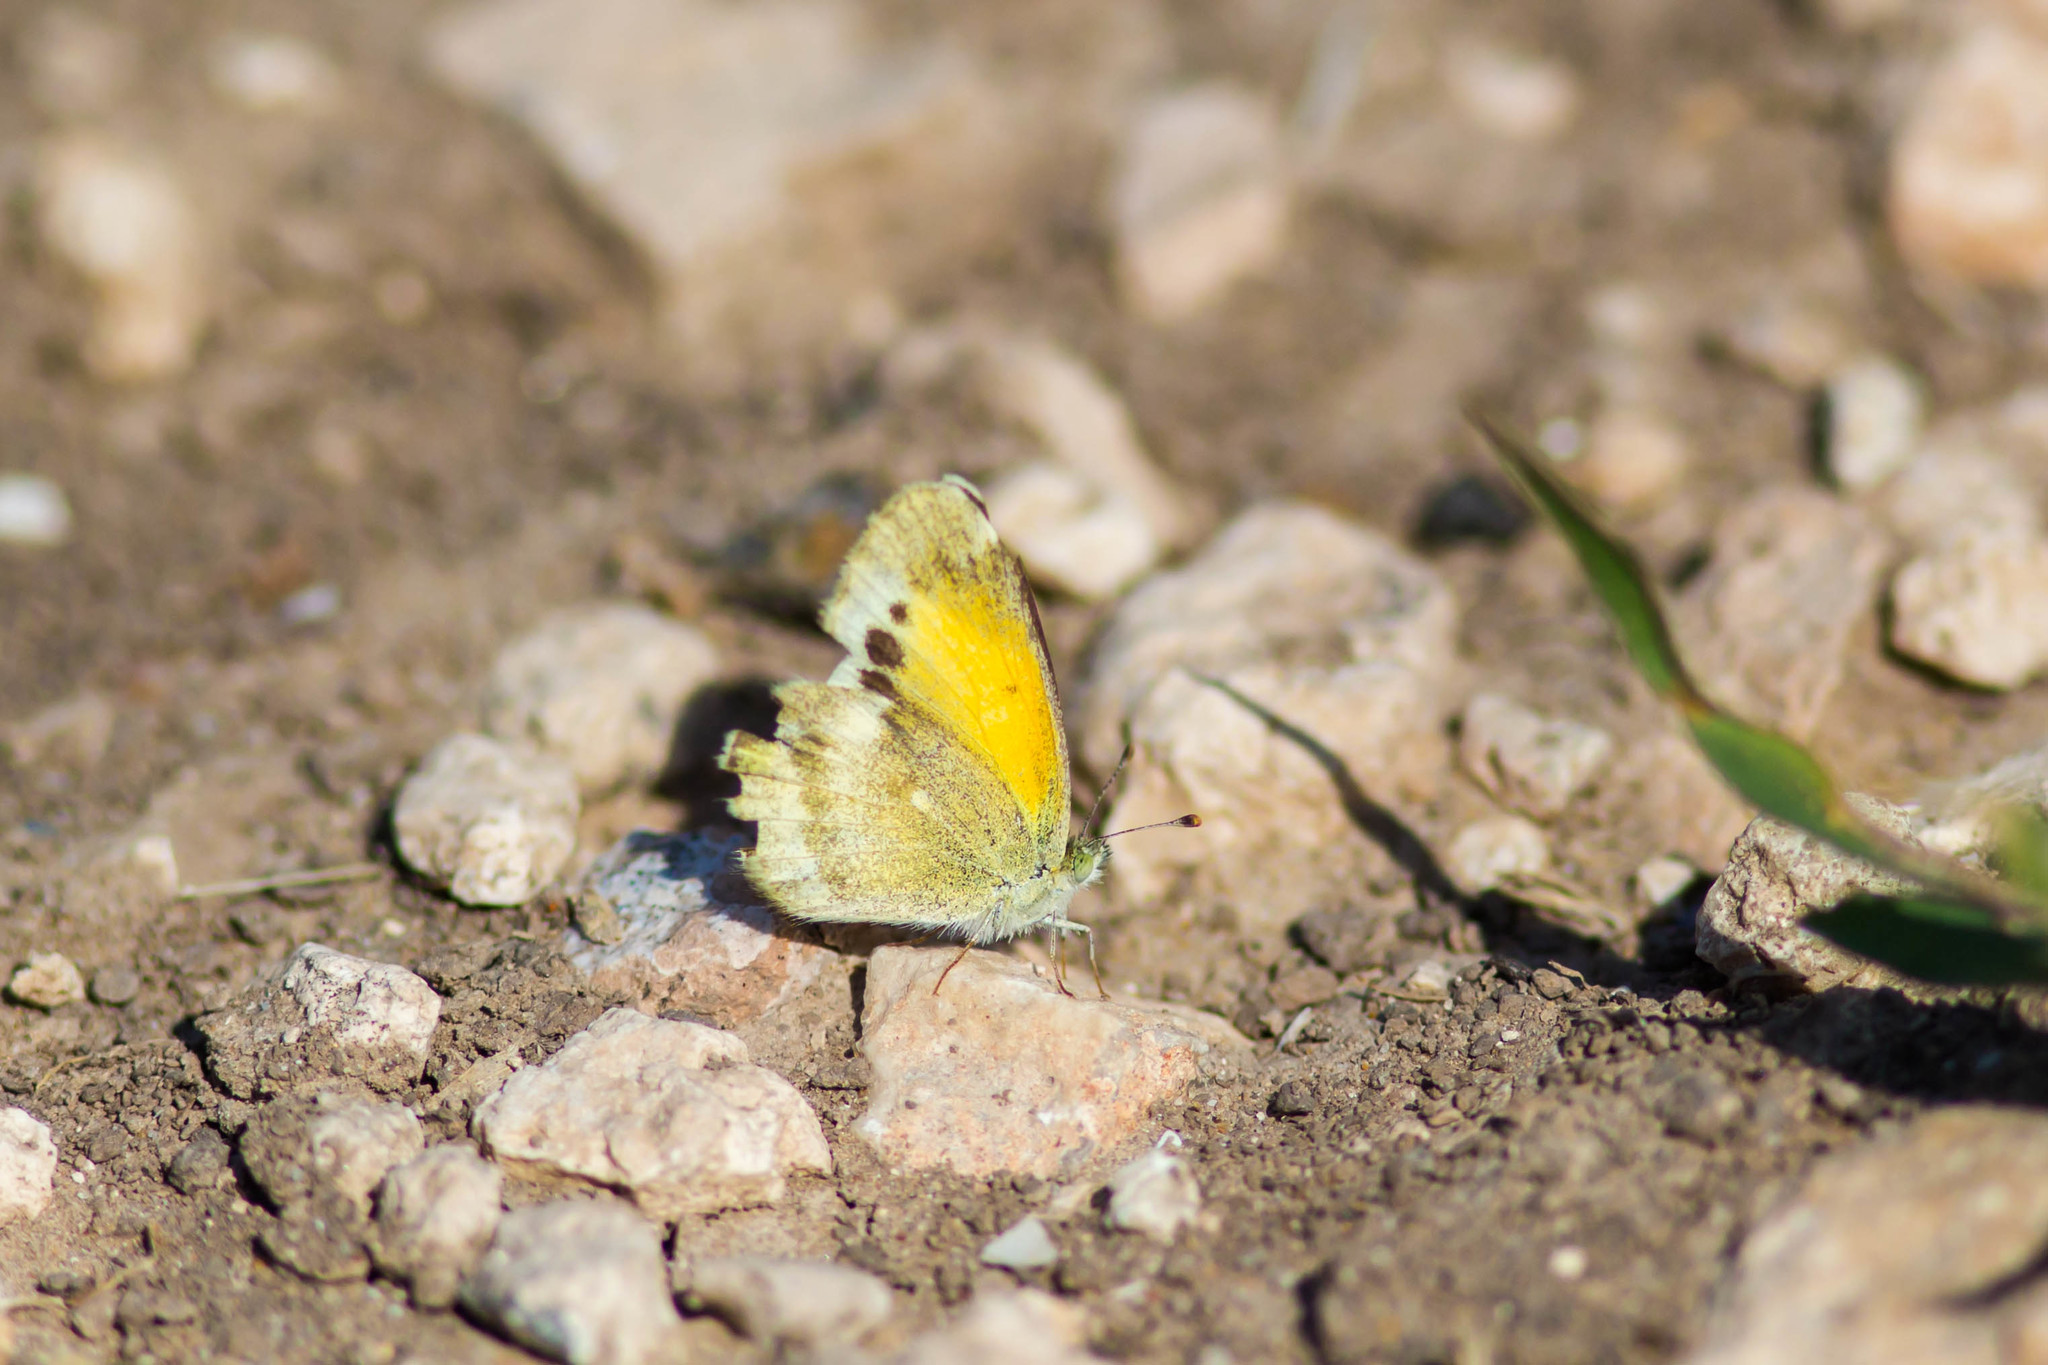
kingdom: Animalia
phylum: Arthropoda
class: Insecta
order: Lepidoptera
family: Pieridae
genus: Nathalis
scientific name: Nathalis iole
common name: Dainty sulphur
